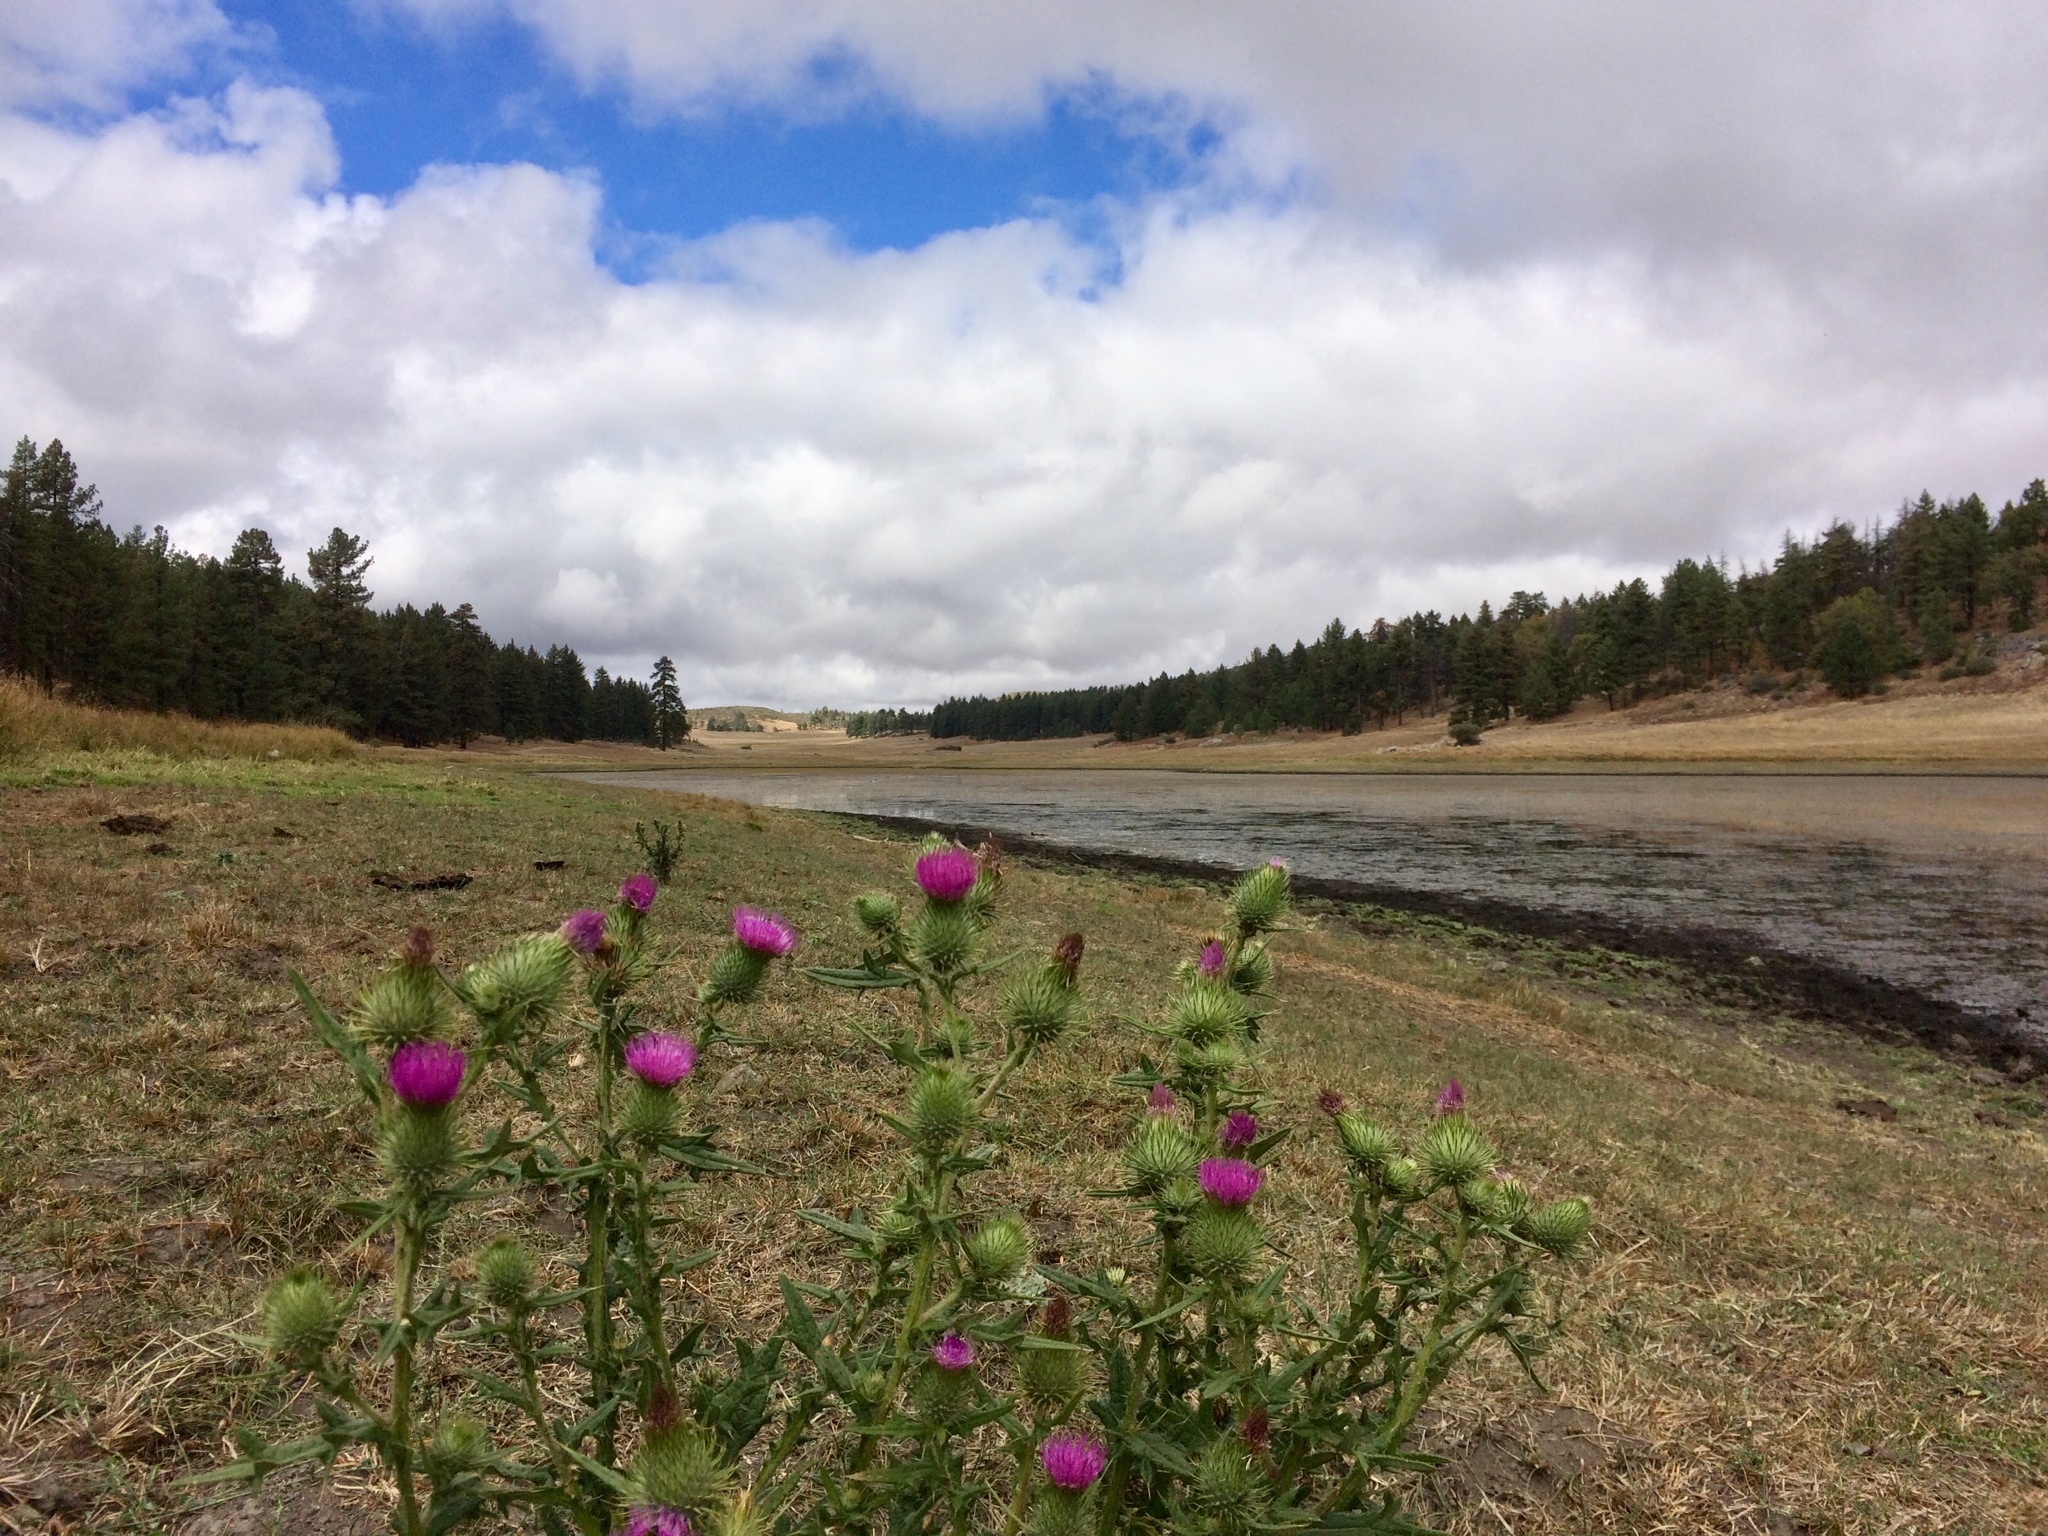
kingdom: Plantae
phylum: Tracheophyta
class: Magnoliopsida
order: Asterales
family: Asteraceae
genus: Cirsium
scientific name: Cirsium vulgare
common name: Bull thistle
